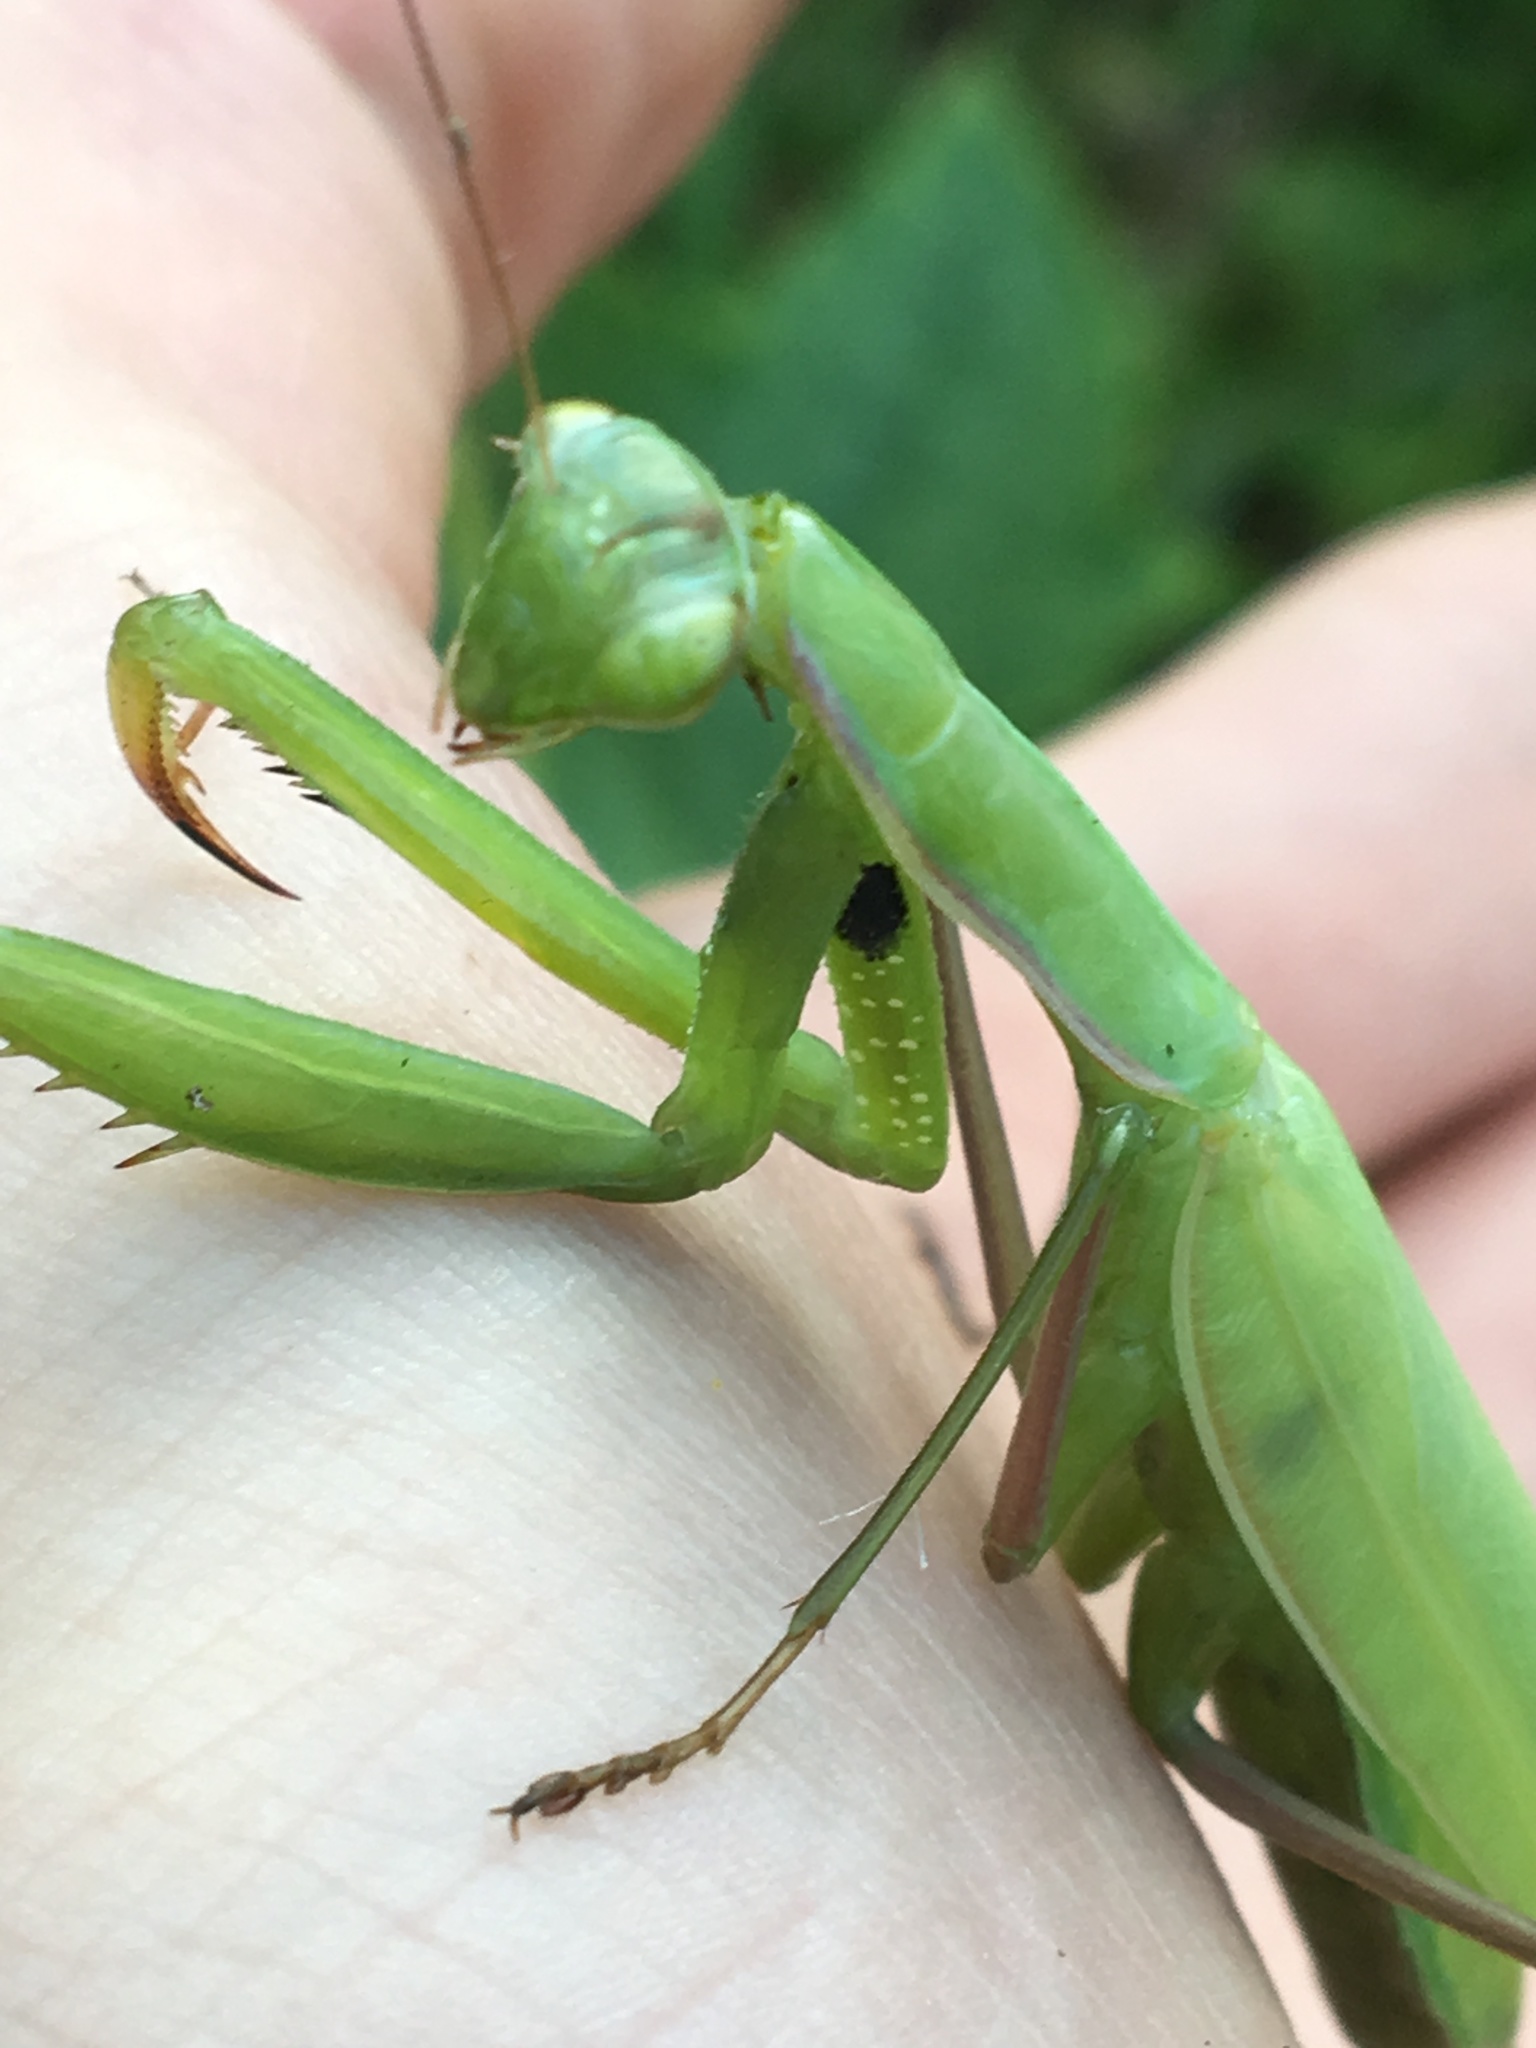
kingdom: Animalia
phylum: Arthropoda
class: Insecta
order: Mantodea
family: Mantidae
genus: Mantis
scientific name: Mantis religiosa
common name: Praying mantis
